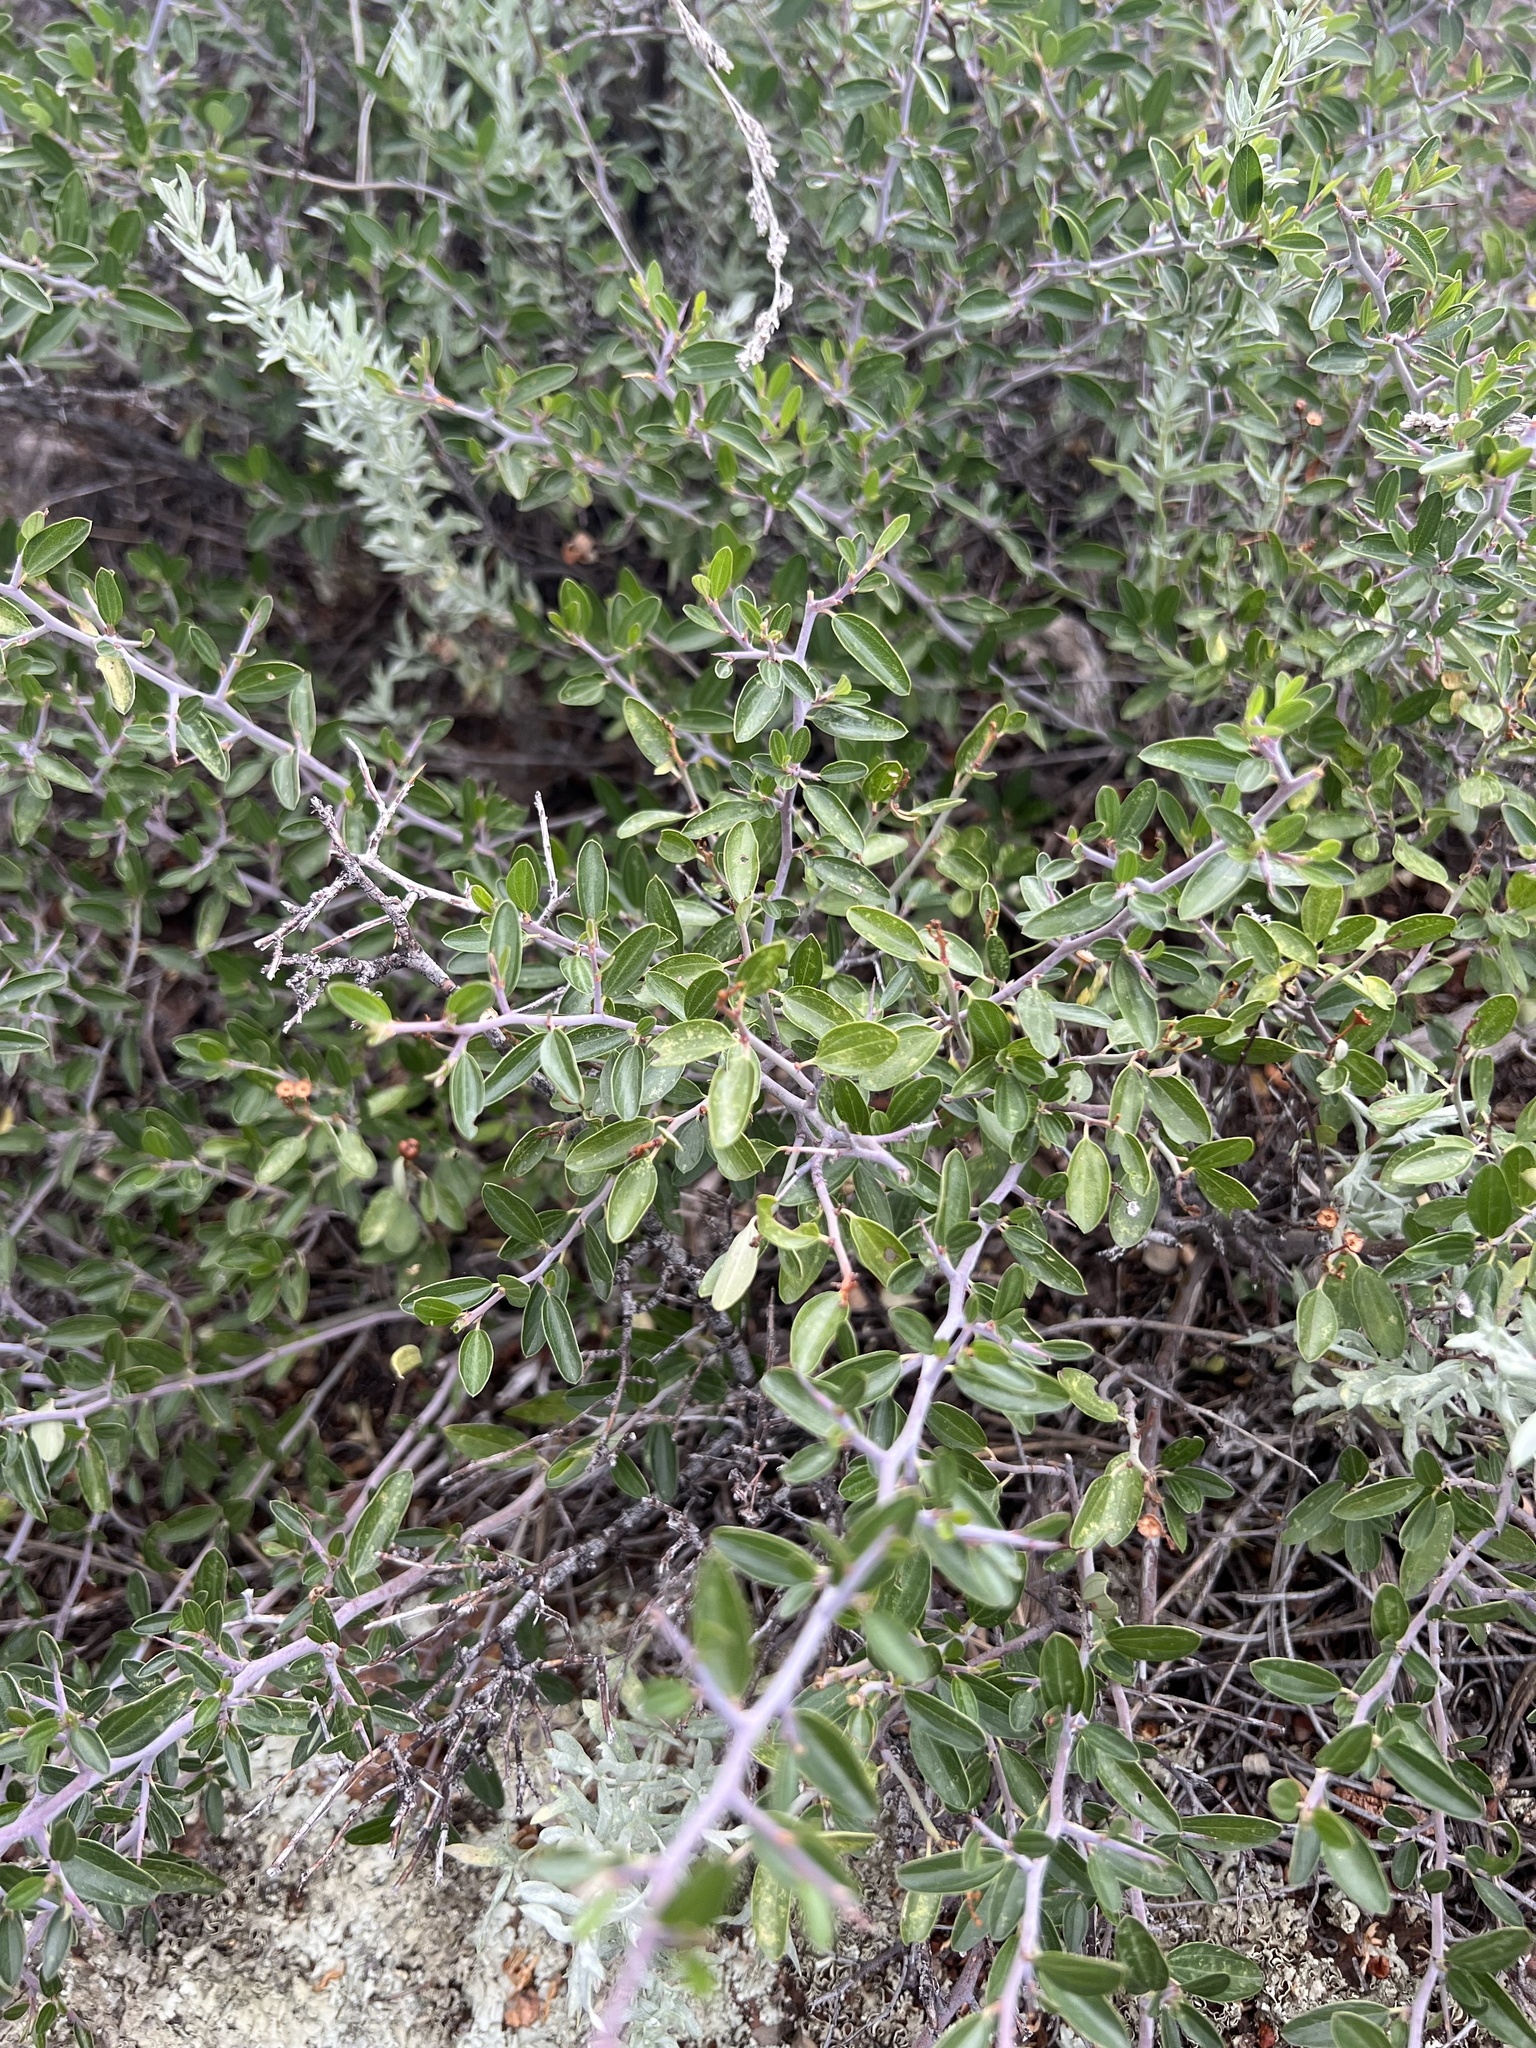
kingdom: Plantae
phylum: Tracheophyta
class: Magnoliopsida
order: Rosales
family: Rhamnaceae
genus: Ceanothus
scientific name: Ceanothus fendleri
